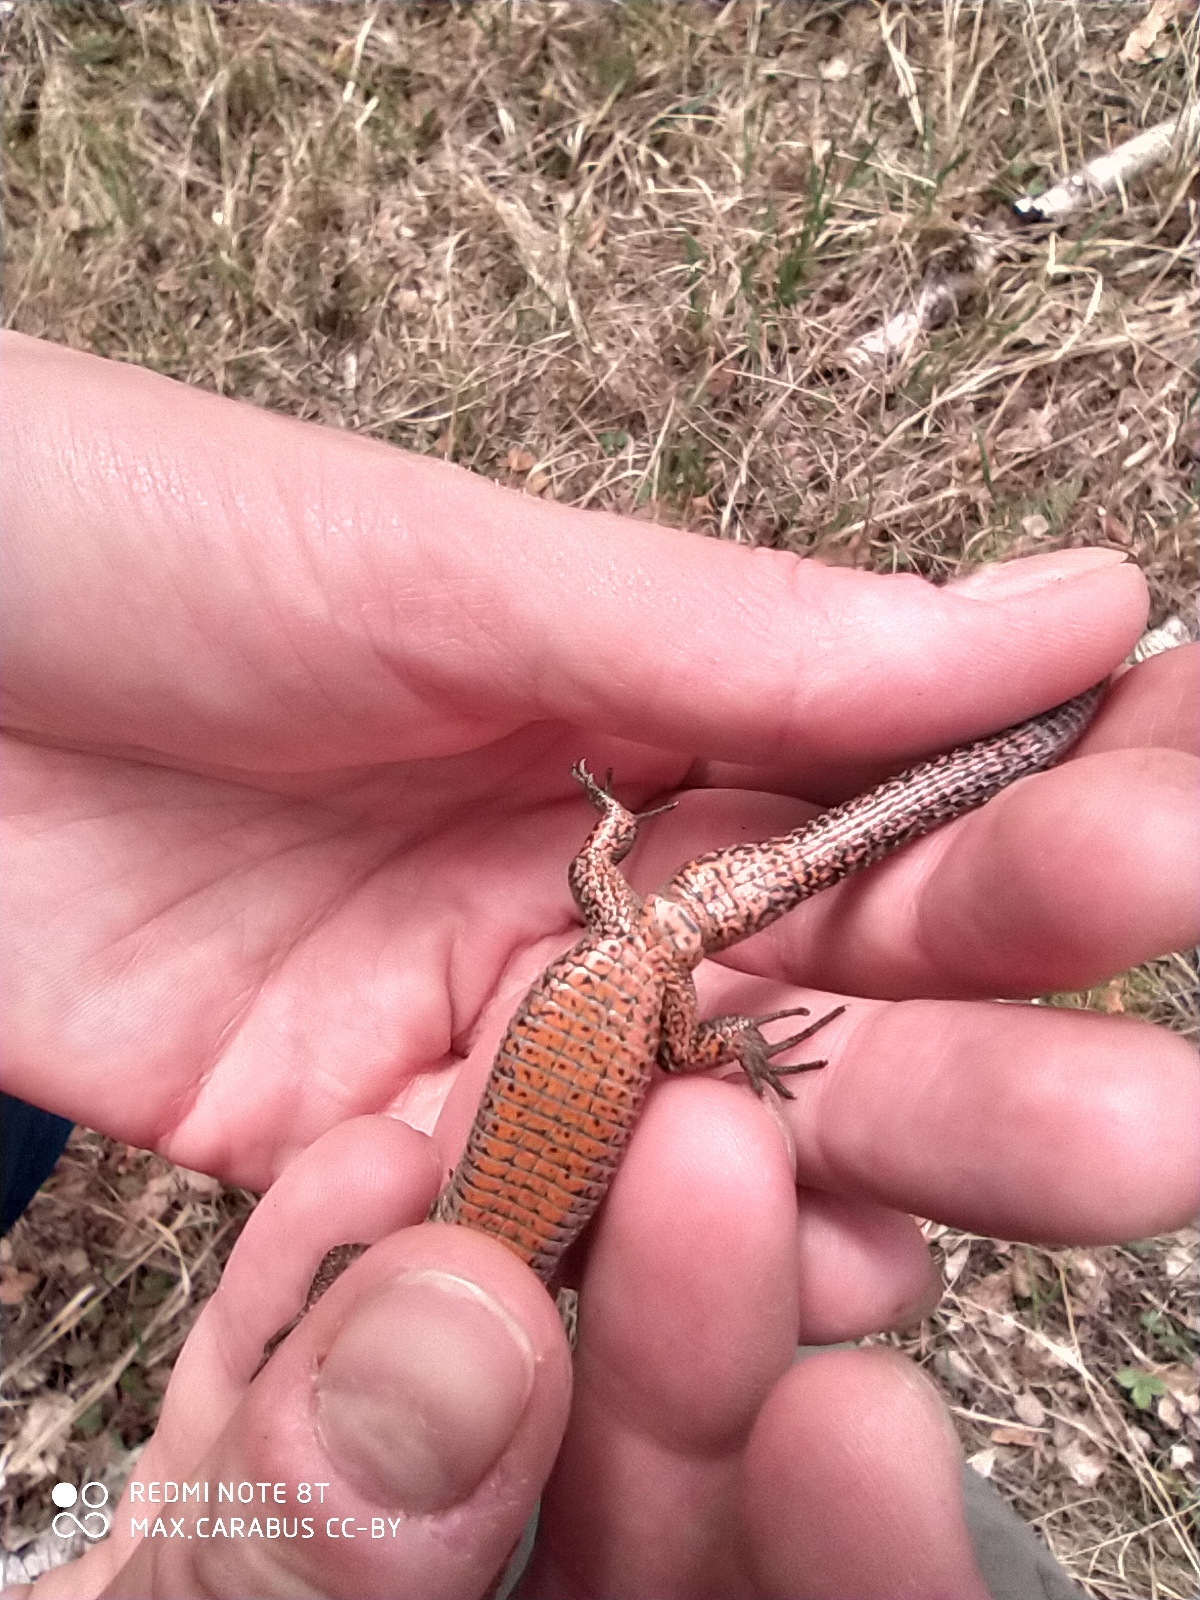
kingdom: Animalia
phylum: Chordata
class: Squamata
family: Lacertidae
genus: Zootoca
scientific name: Zootoca vivipara
